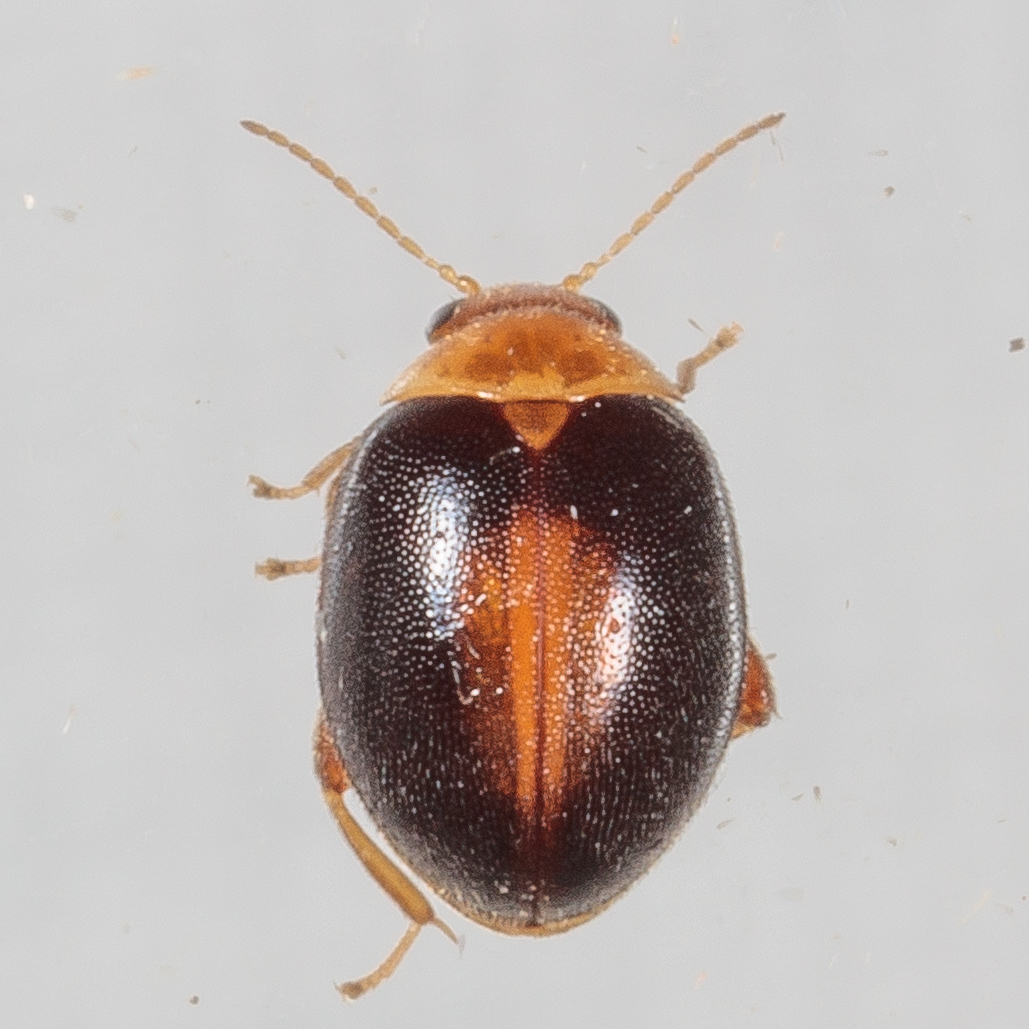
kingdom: Animalia
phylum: Arthropoda
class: Insecta
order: Coleoptera
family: Scirtidae
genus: Scirtes
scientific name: Scirtes orbiculatus
